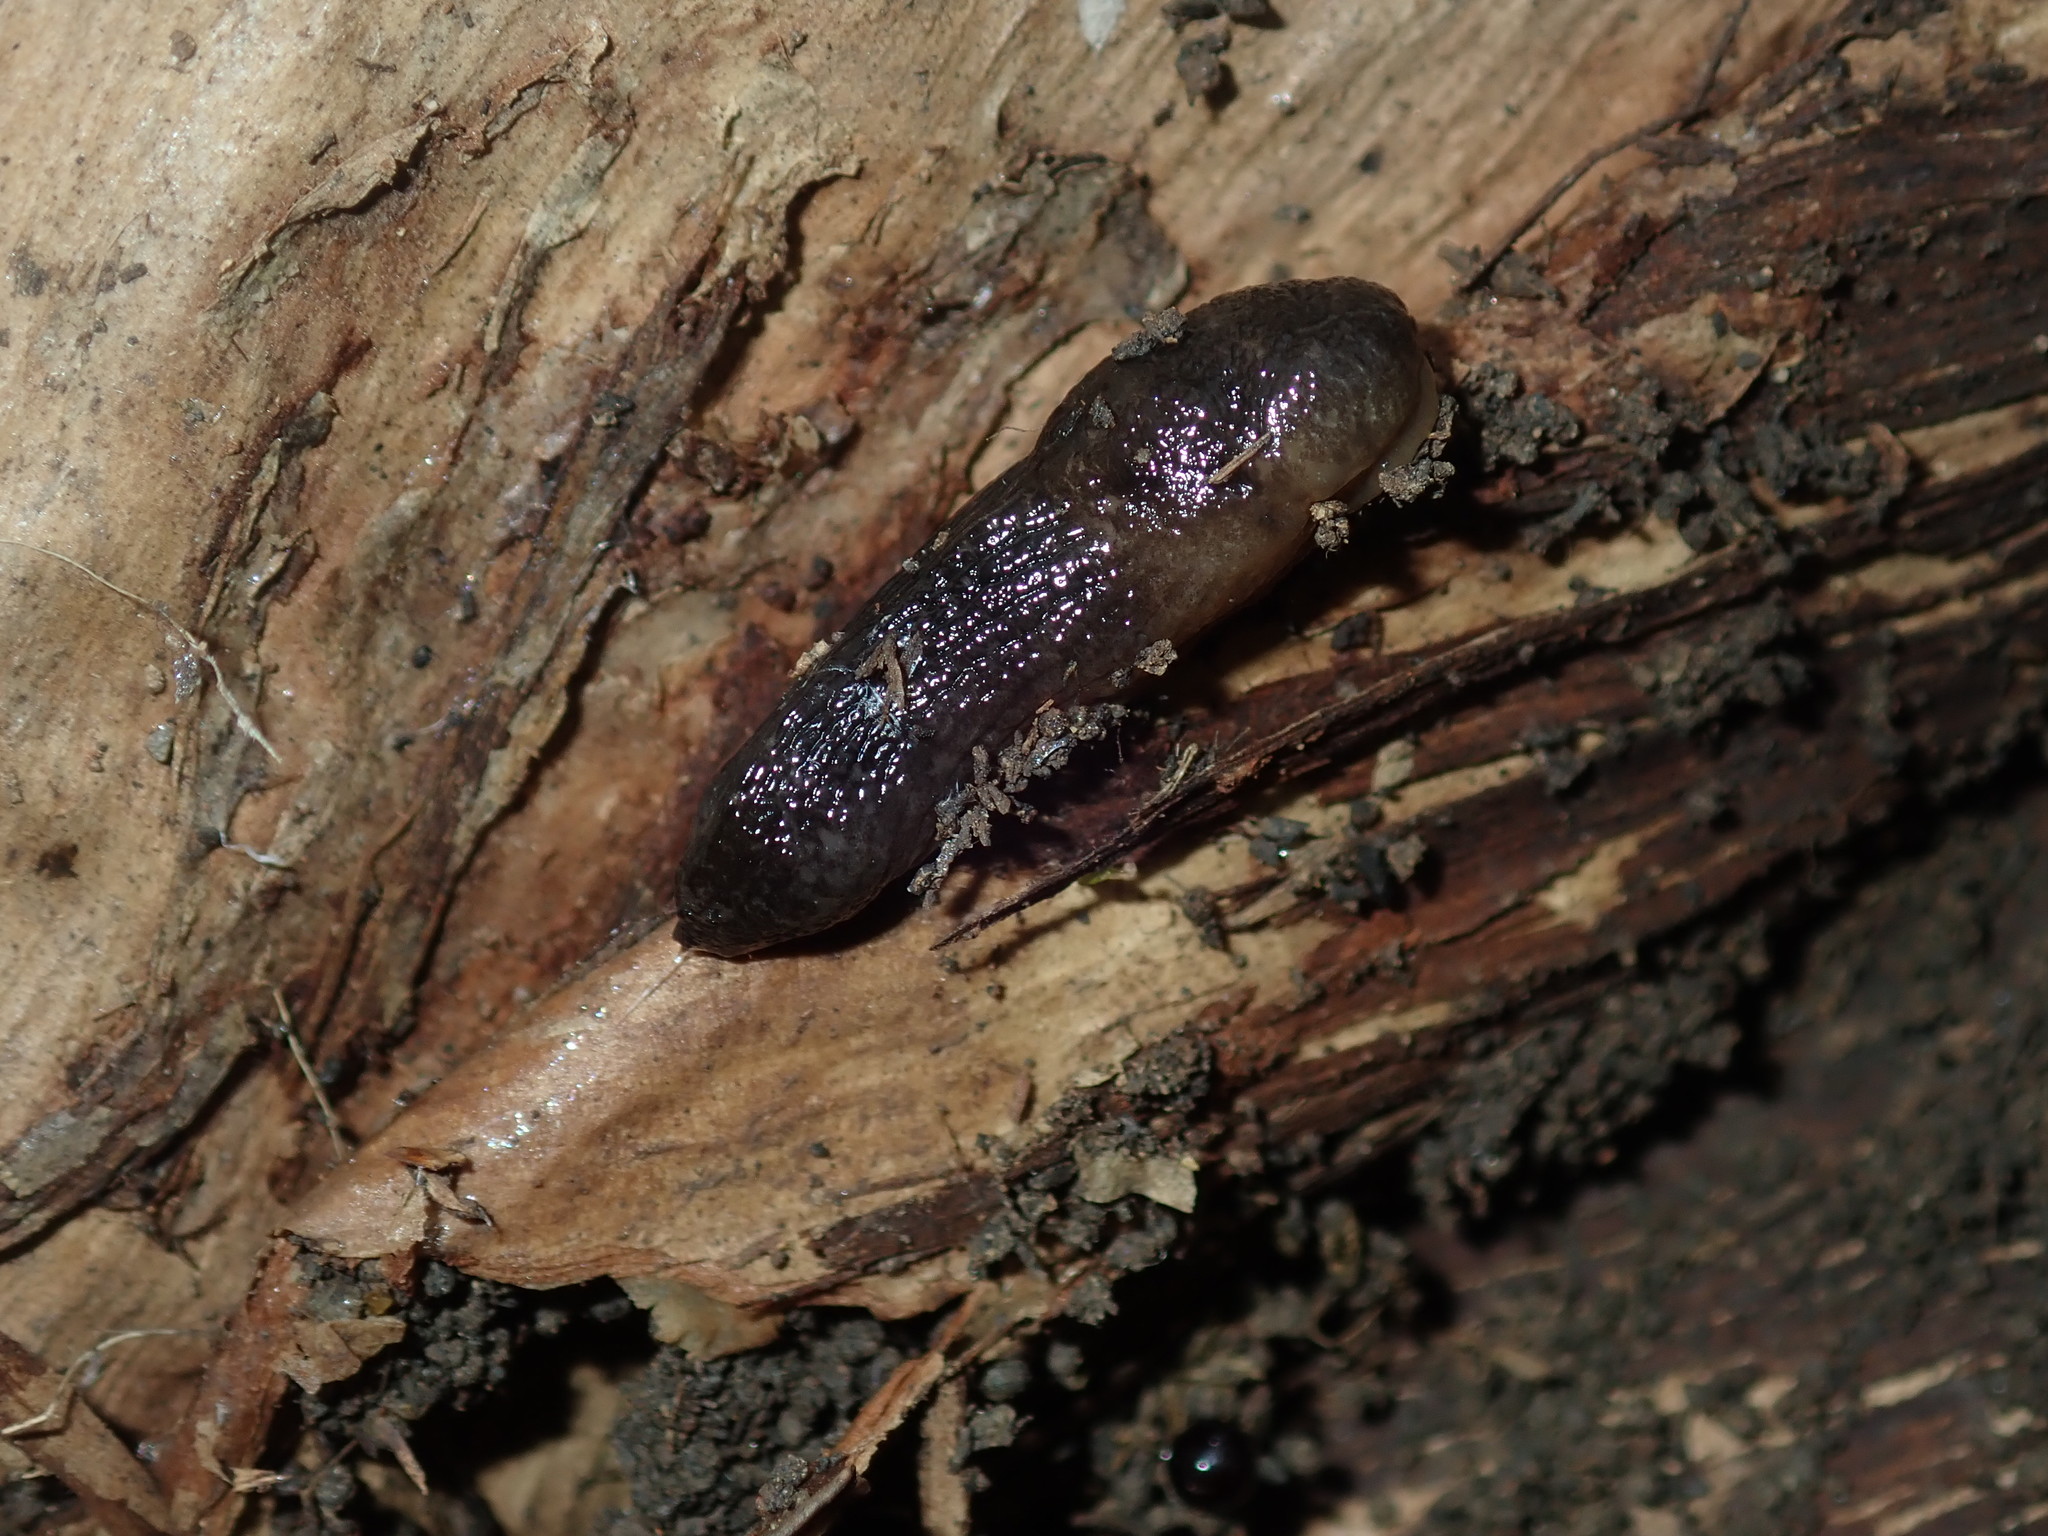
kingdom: Animalia
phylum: Mollusca
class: Gastropoda
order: Stylommatophora
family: Milacidae
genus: Milax
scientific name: Milax gagates
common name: Greenhouse slug
